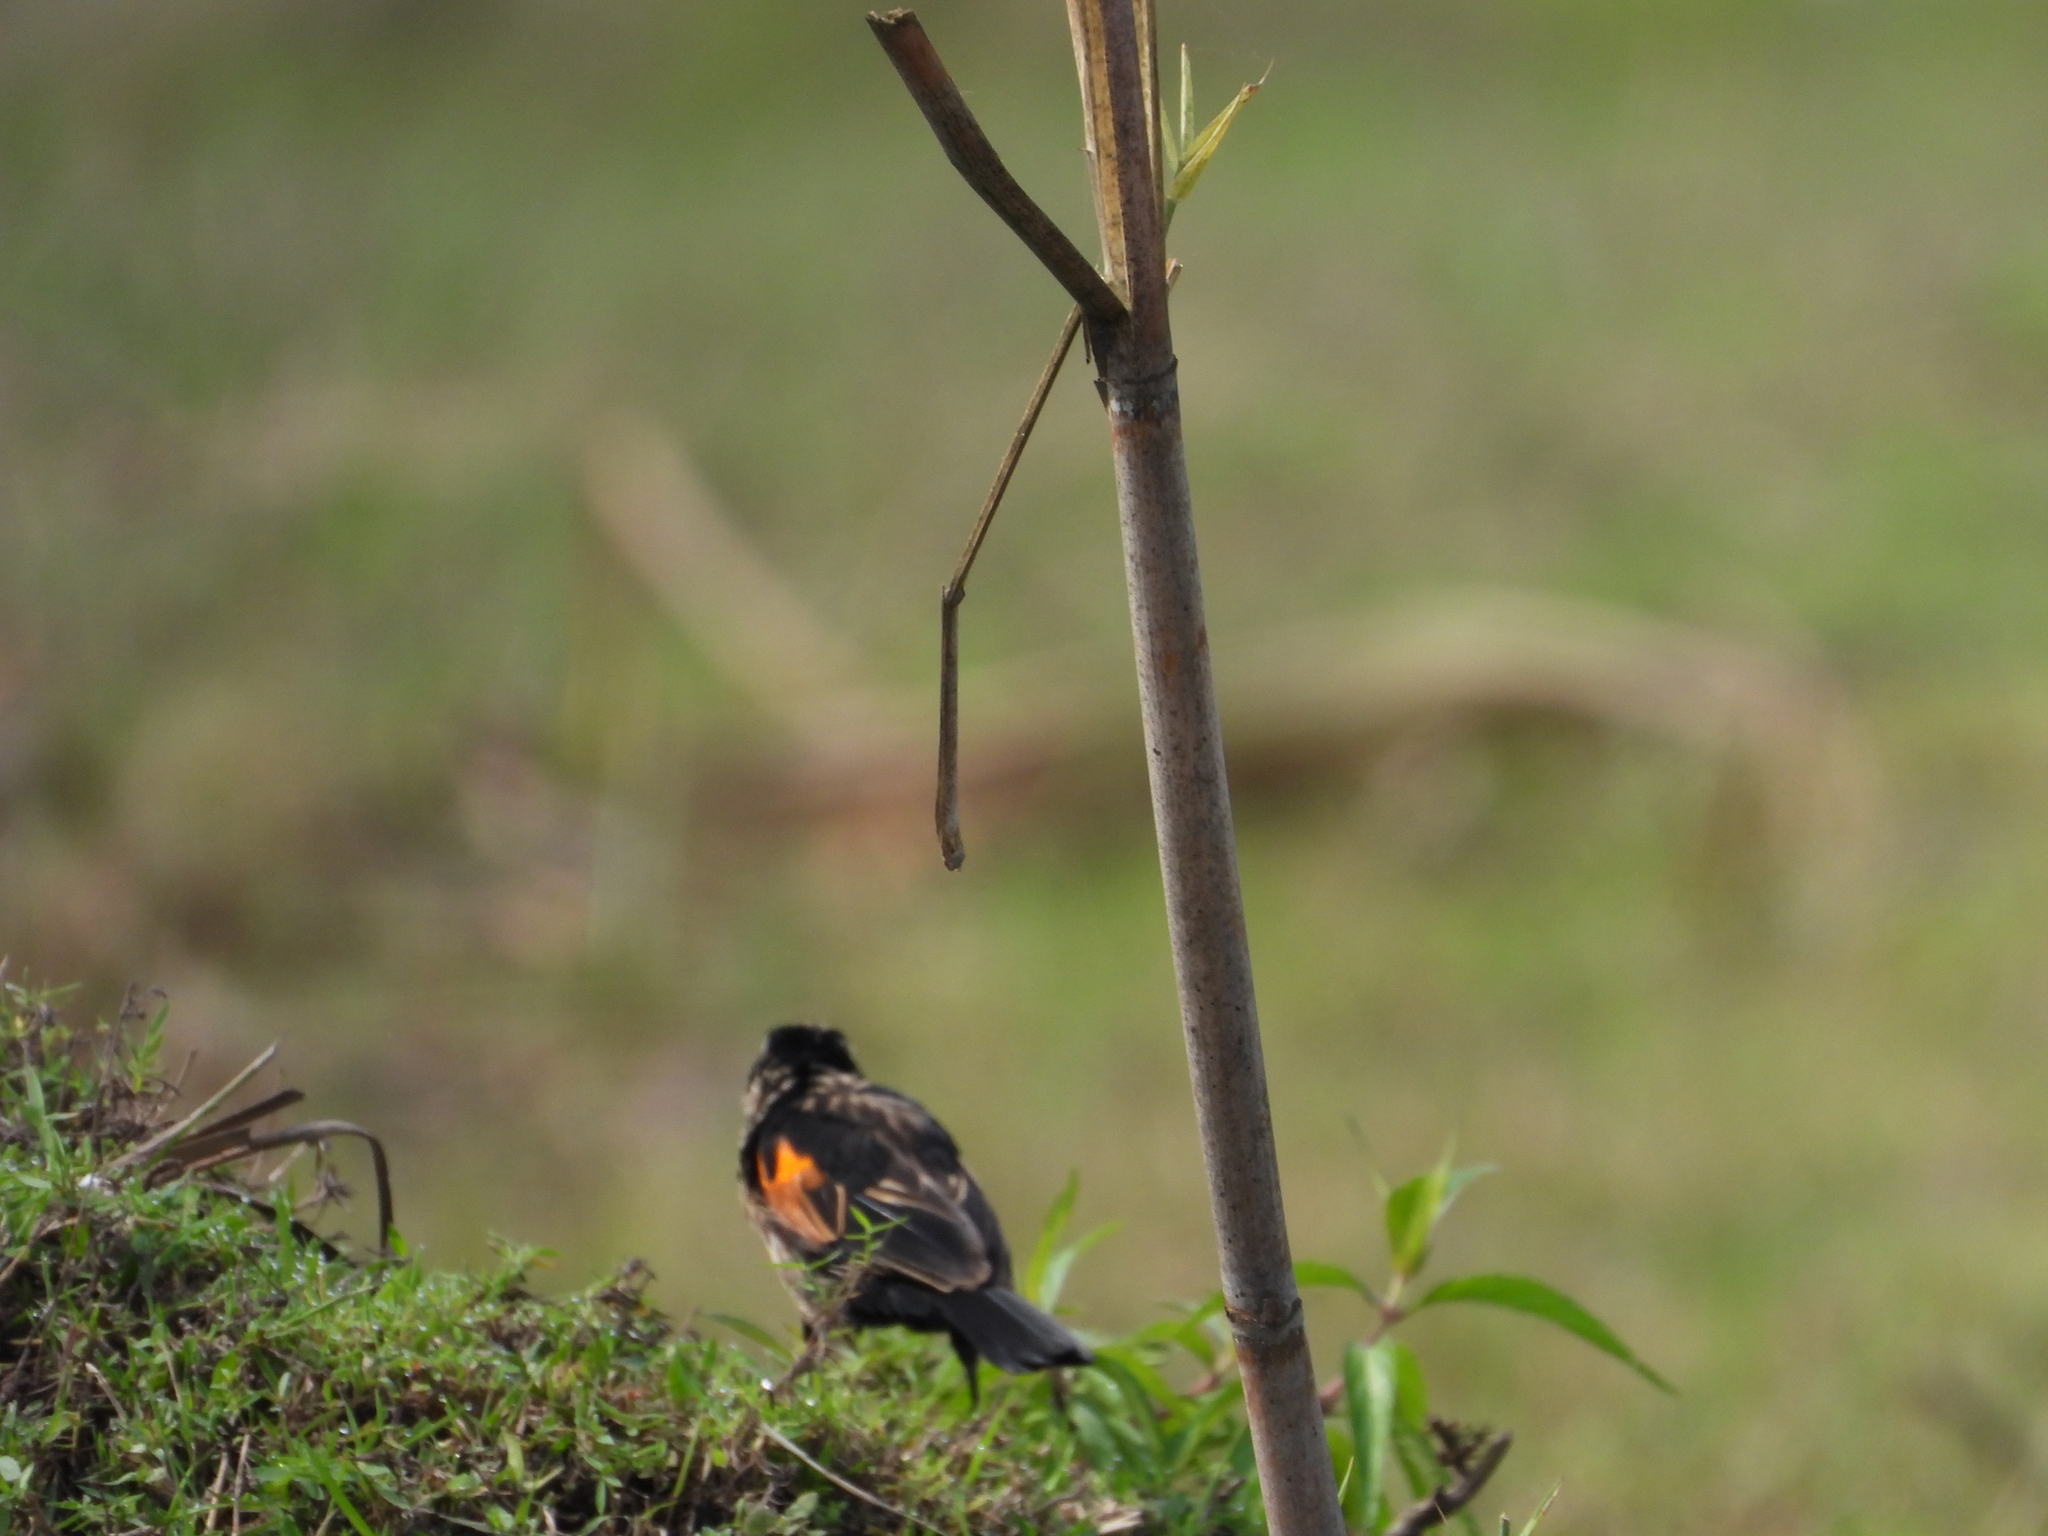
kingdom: Animalia
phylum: Chordata
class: Aves
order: Passeriformes
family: Ploceidae
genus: Euplectes
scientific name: Euplectes axillaris
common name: Fan-tailed widowbird
